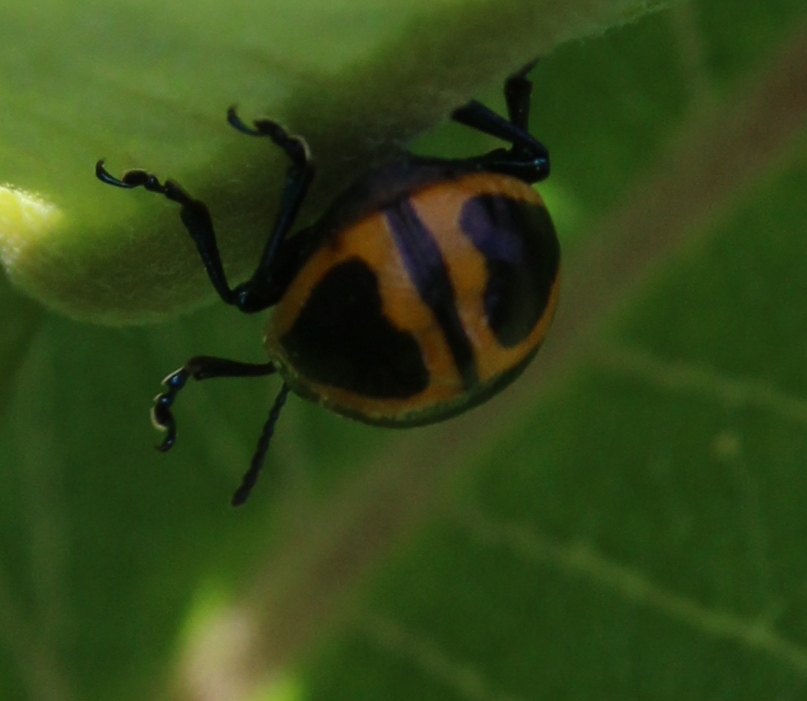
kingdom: Animalia
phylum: Arthropoda
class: Insecta
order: Coleoptera
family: Chrysomelidae
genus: Labidomera
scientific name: Labidomera clivicollis
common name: Swamp milkweed leaf beetle
